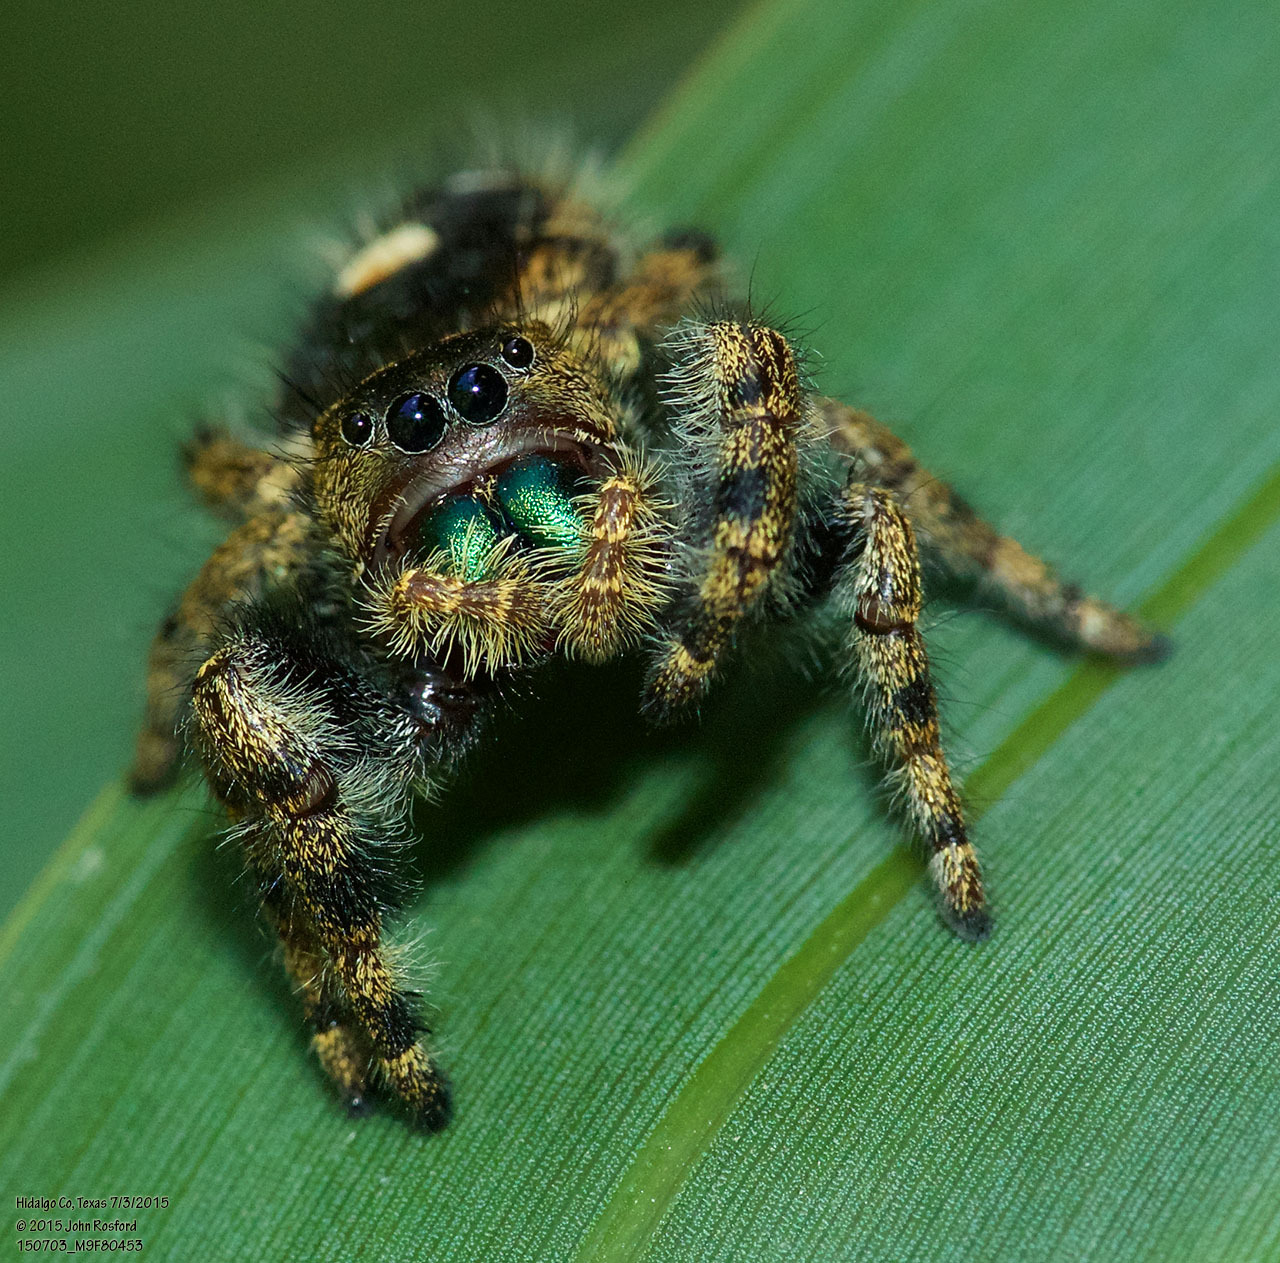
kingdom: Animalia
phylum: Arthropoda
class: Arachnida
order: Araneae
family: Salticidae
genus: Phidippus
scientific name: Phidippus audax
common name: Bold jumper
